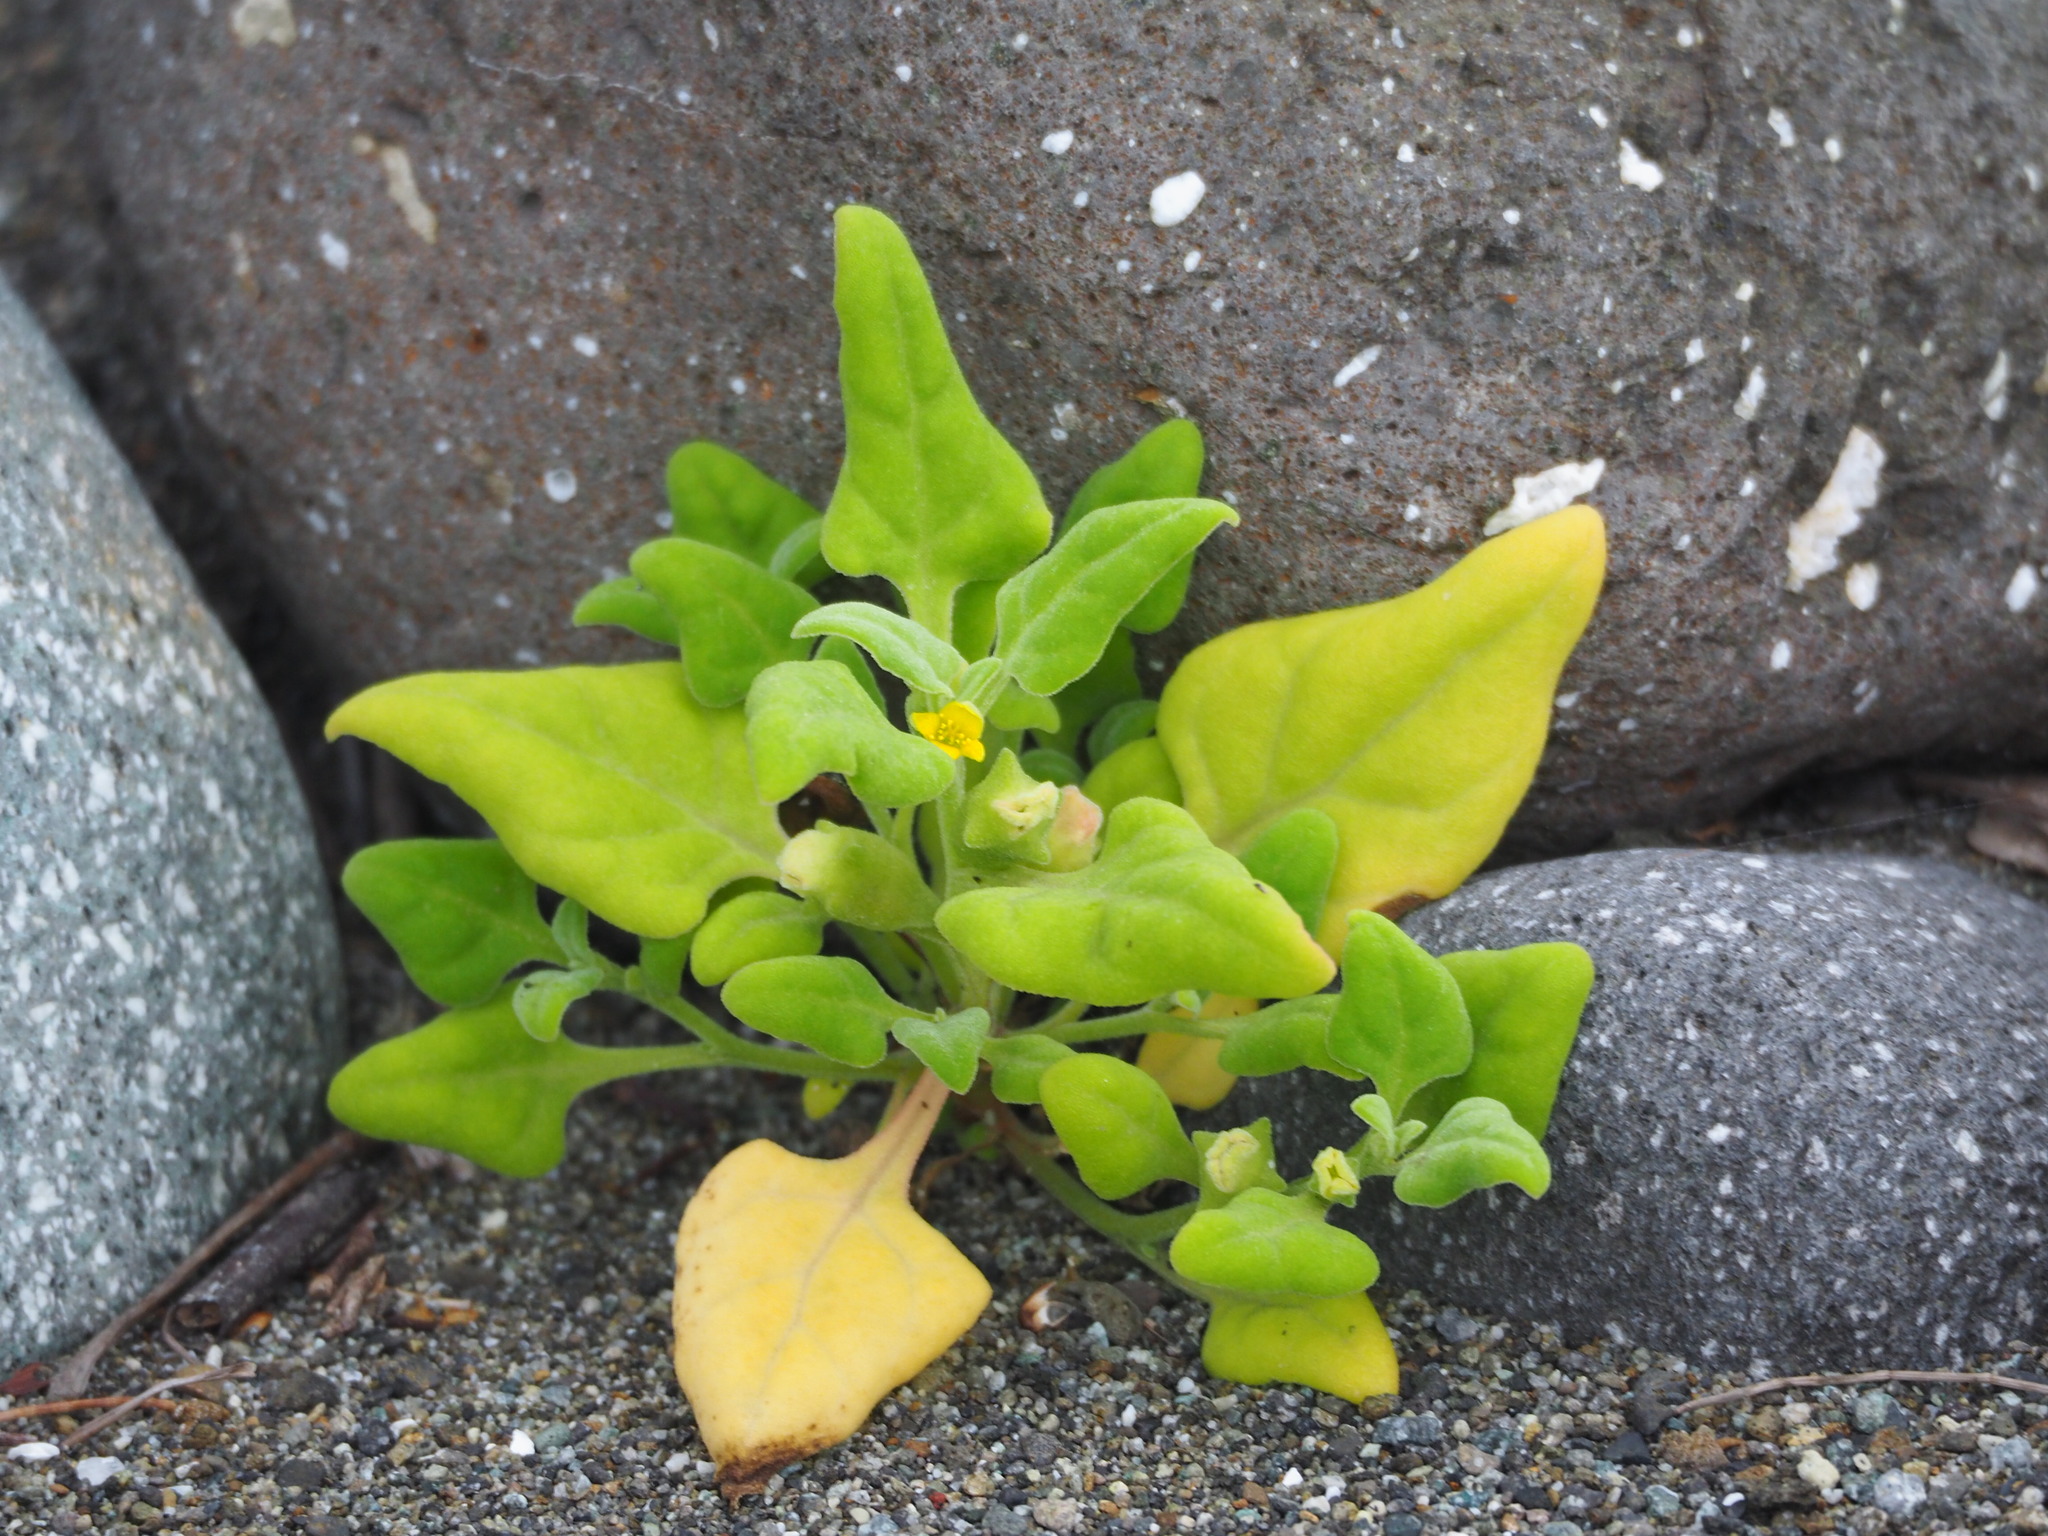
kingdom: Plantae
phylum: Tracheophyta
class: Magnoliopsida
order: Caryophyllales
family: Aizoaceae
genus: Tetragonia
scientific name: Tetragonia tetragonoides
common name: New zealand-spinach
